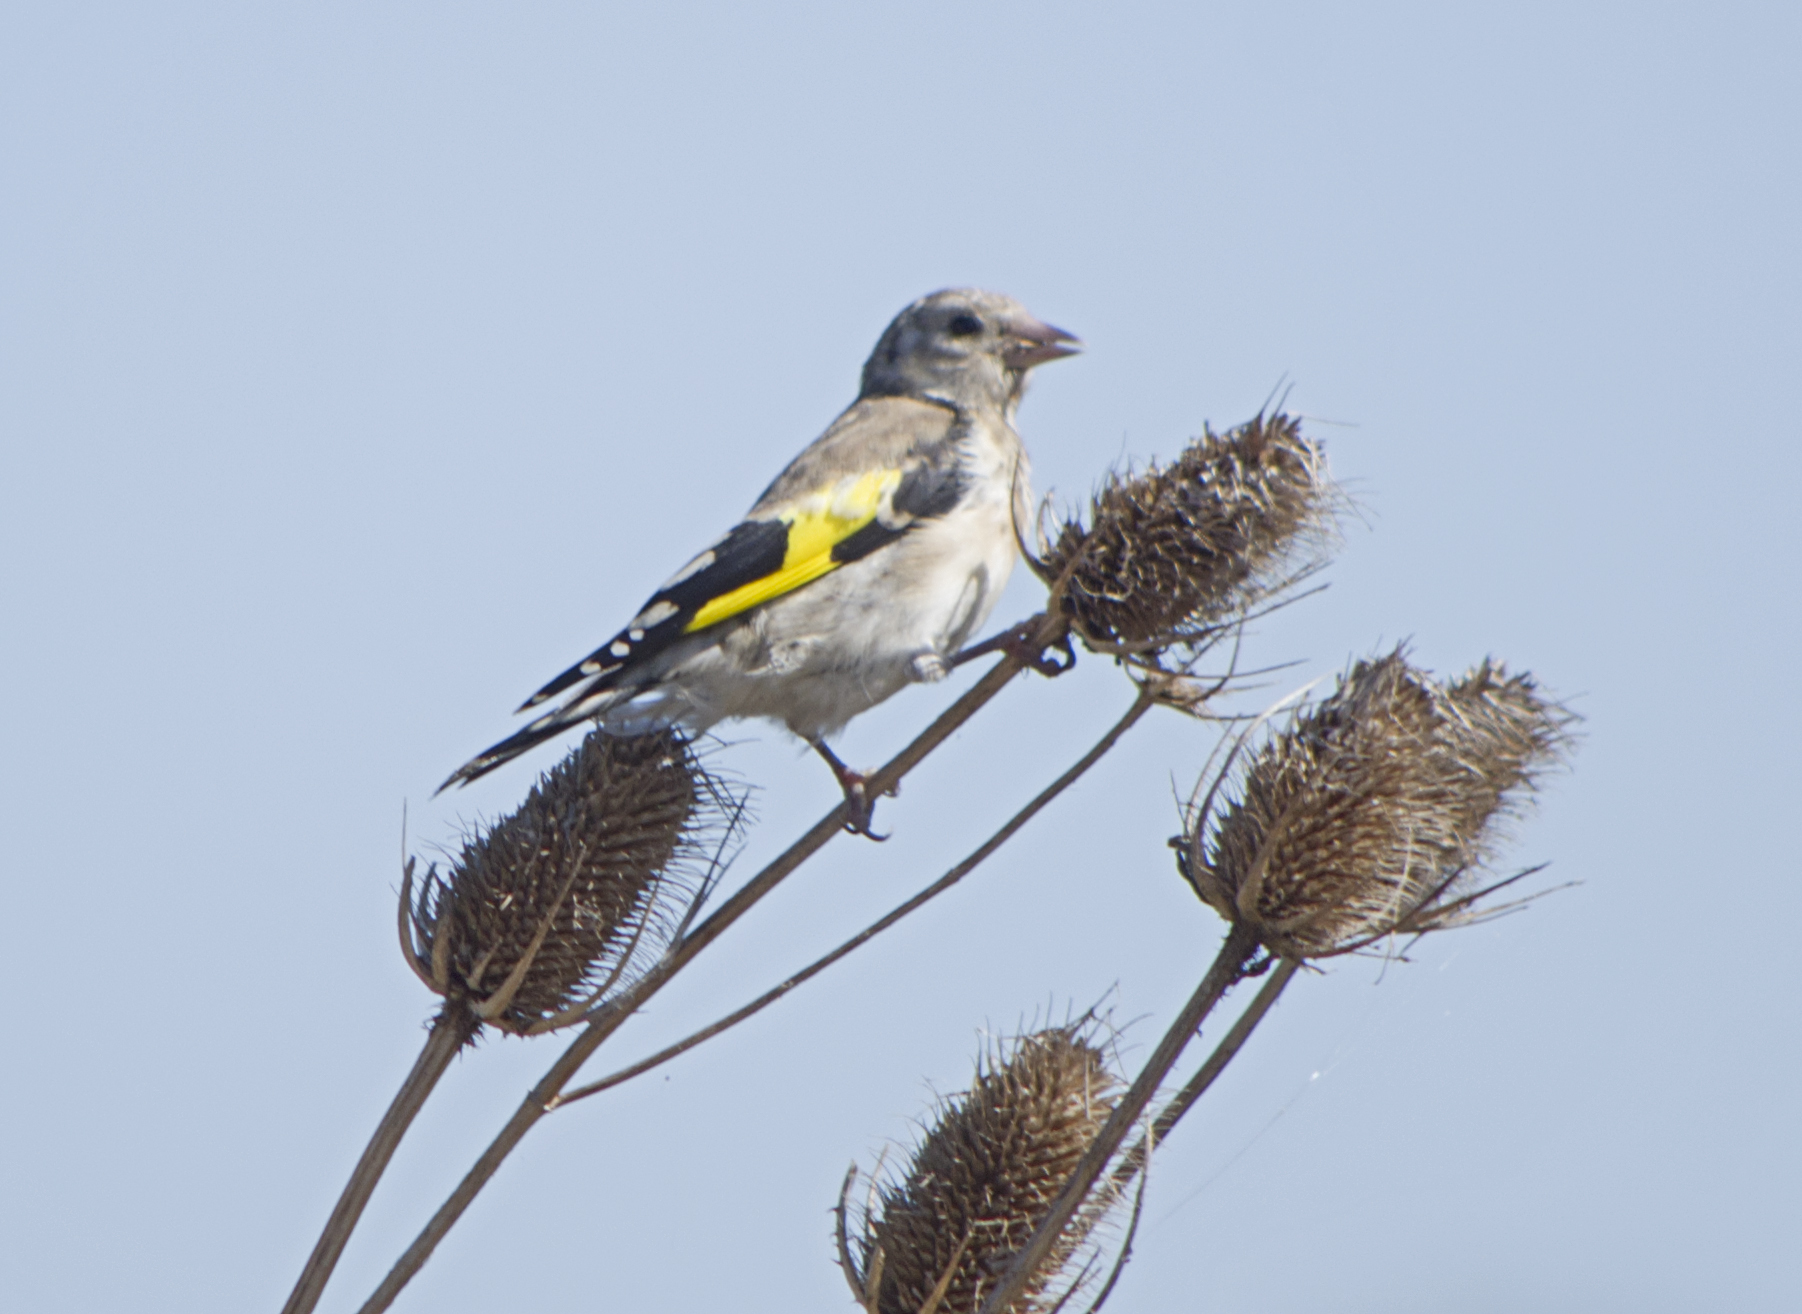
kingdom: Animalia
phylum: Chordata
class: Aves
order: Passeriformes
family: Fringillidae
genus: Carduelis
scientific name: Carduelis carduelis
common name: European goldfinch
